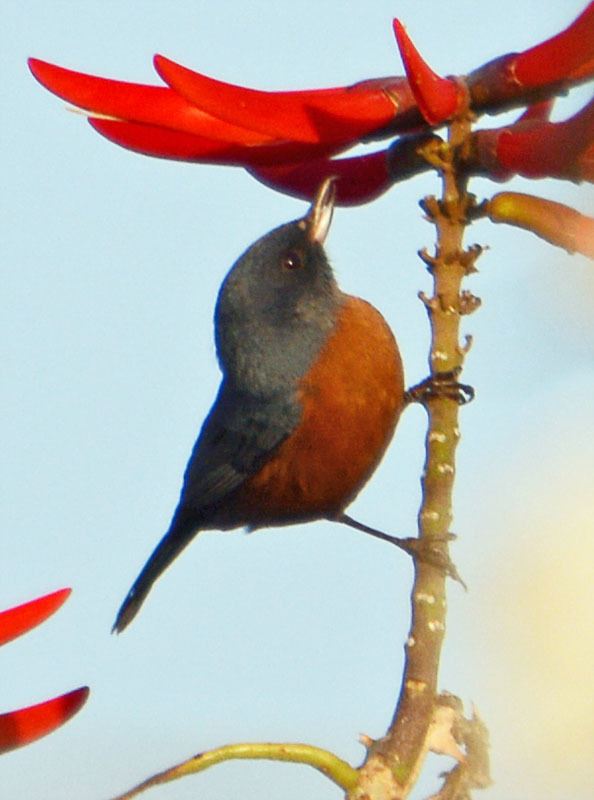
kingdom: Animalia
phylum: Chordata
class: Aves
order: Passeriformes
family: Thraupidae
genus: Diglossa
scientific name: Diglossa baritula
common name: Cinnamon-bellied flowerpiercer
